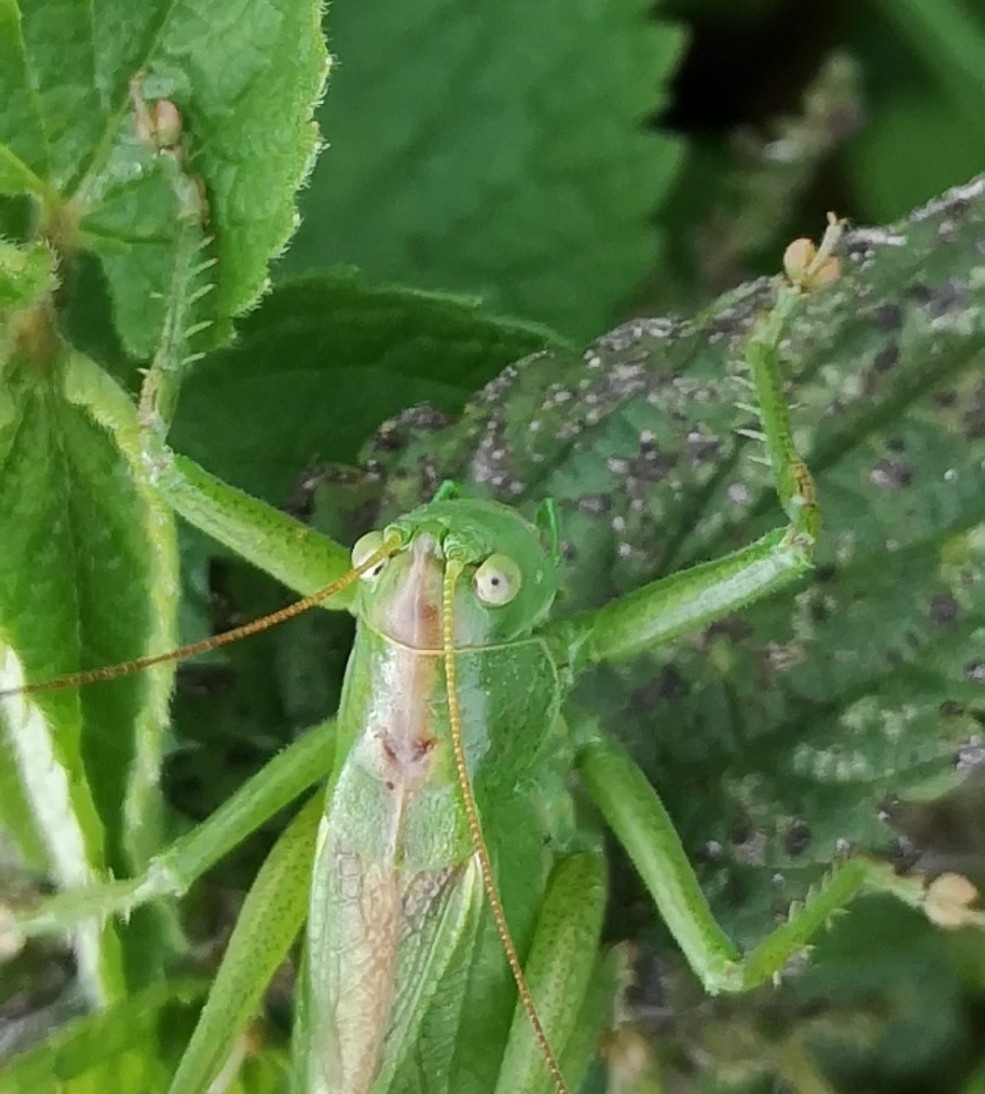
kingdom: Animalia
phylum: Arthropoda
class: Insecta
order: Orthoptera
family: Tettigoniidae
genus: Tettigonia
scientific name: Tettigonia cantans
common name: Upland green bush-cricket
